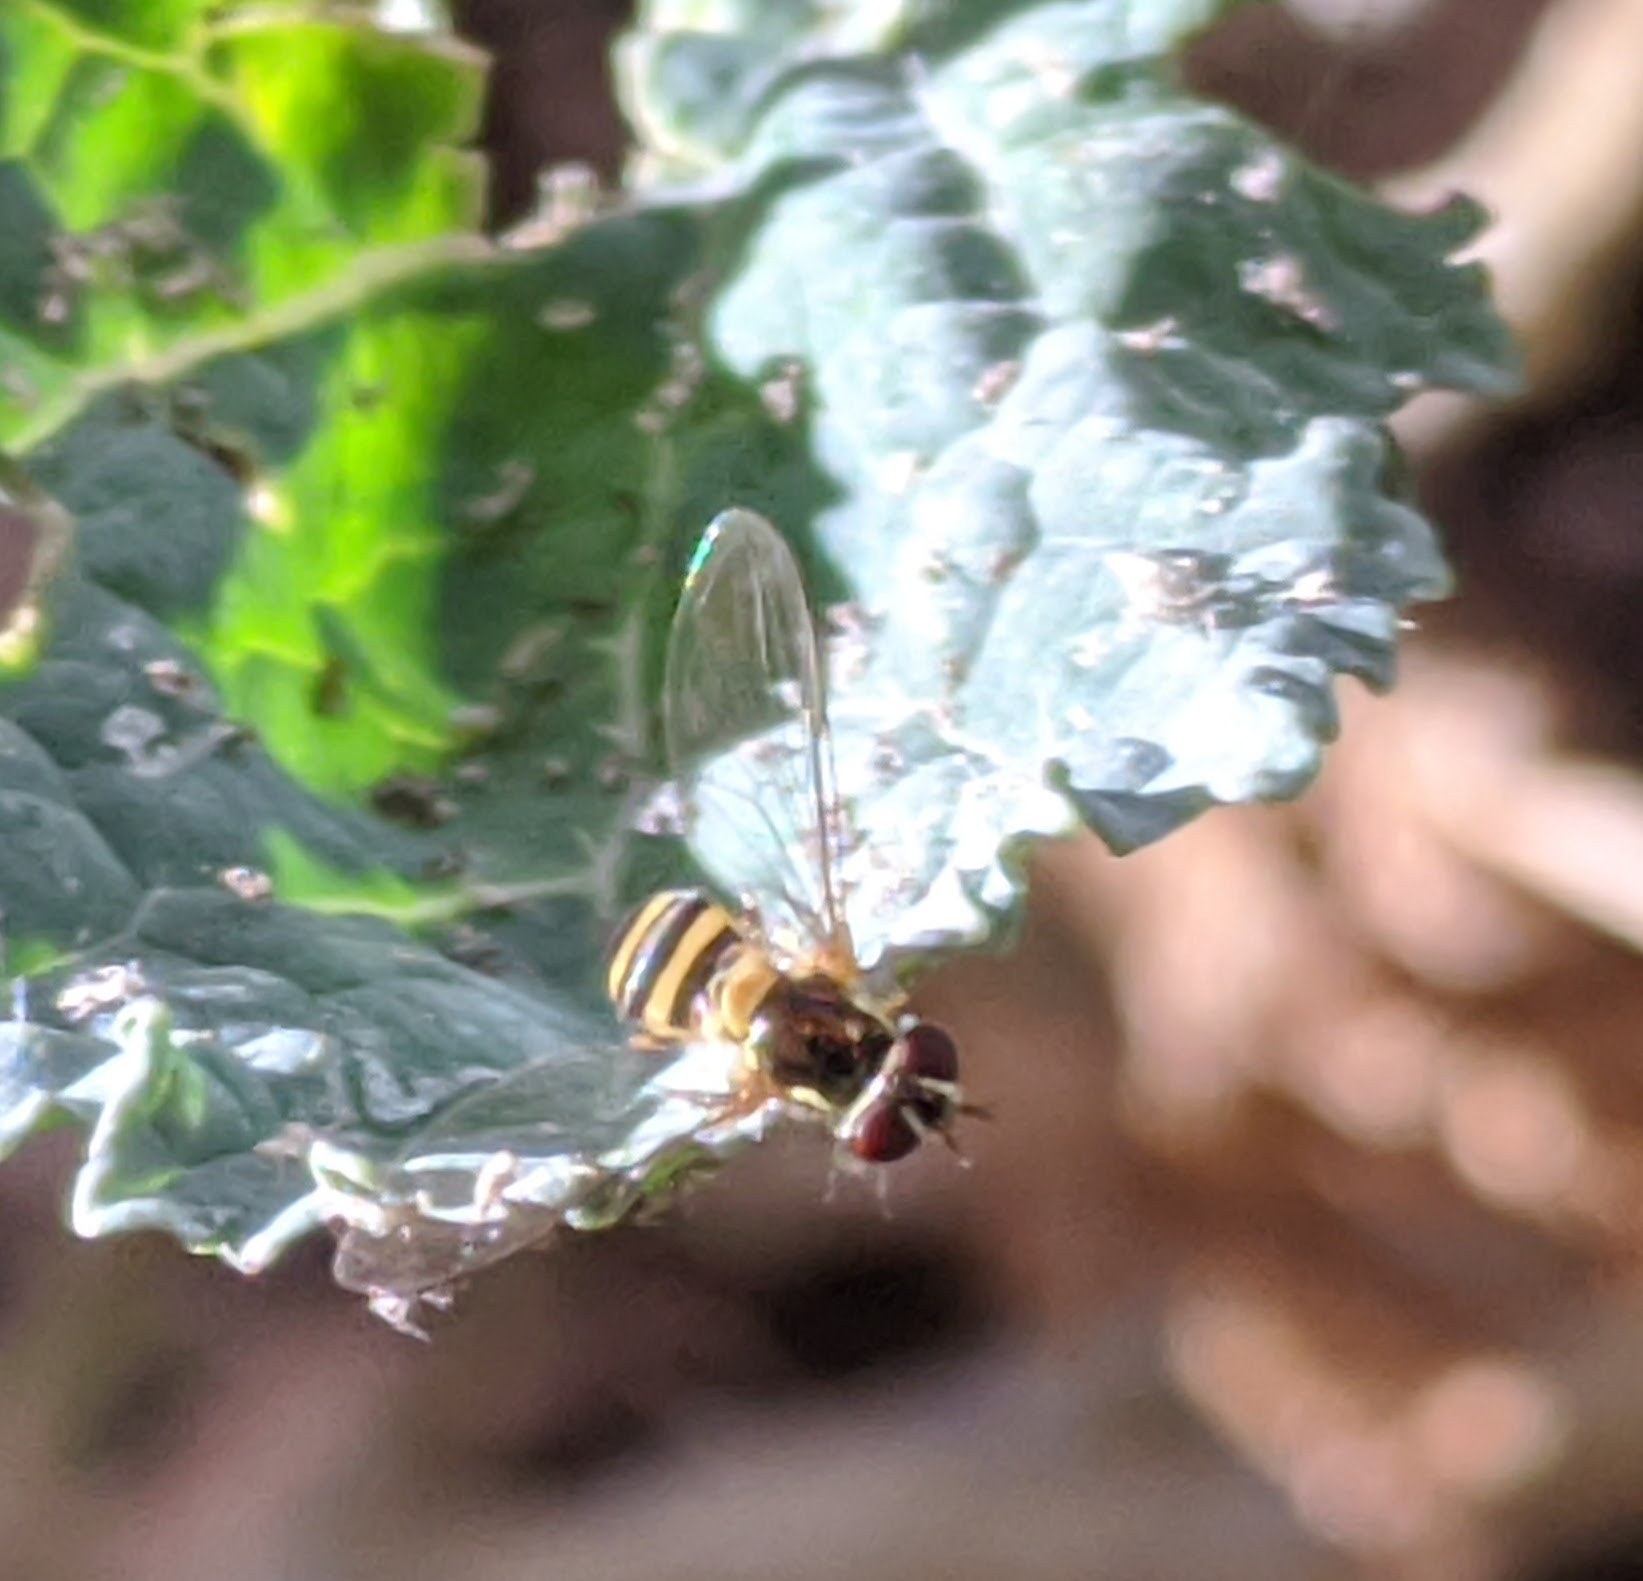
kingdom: Animalia
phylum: Arthropoda
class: Insecta
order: Diptera
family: Syrphidae
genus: Allograpta
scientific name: Allograpta obliqua
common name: Common oblique syrphid
